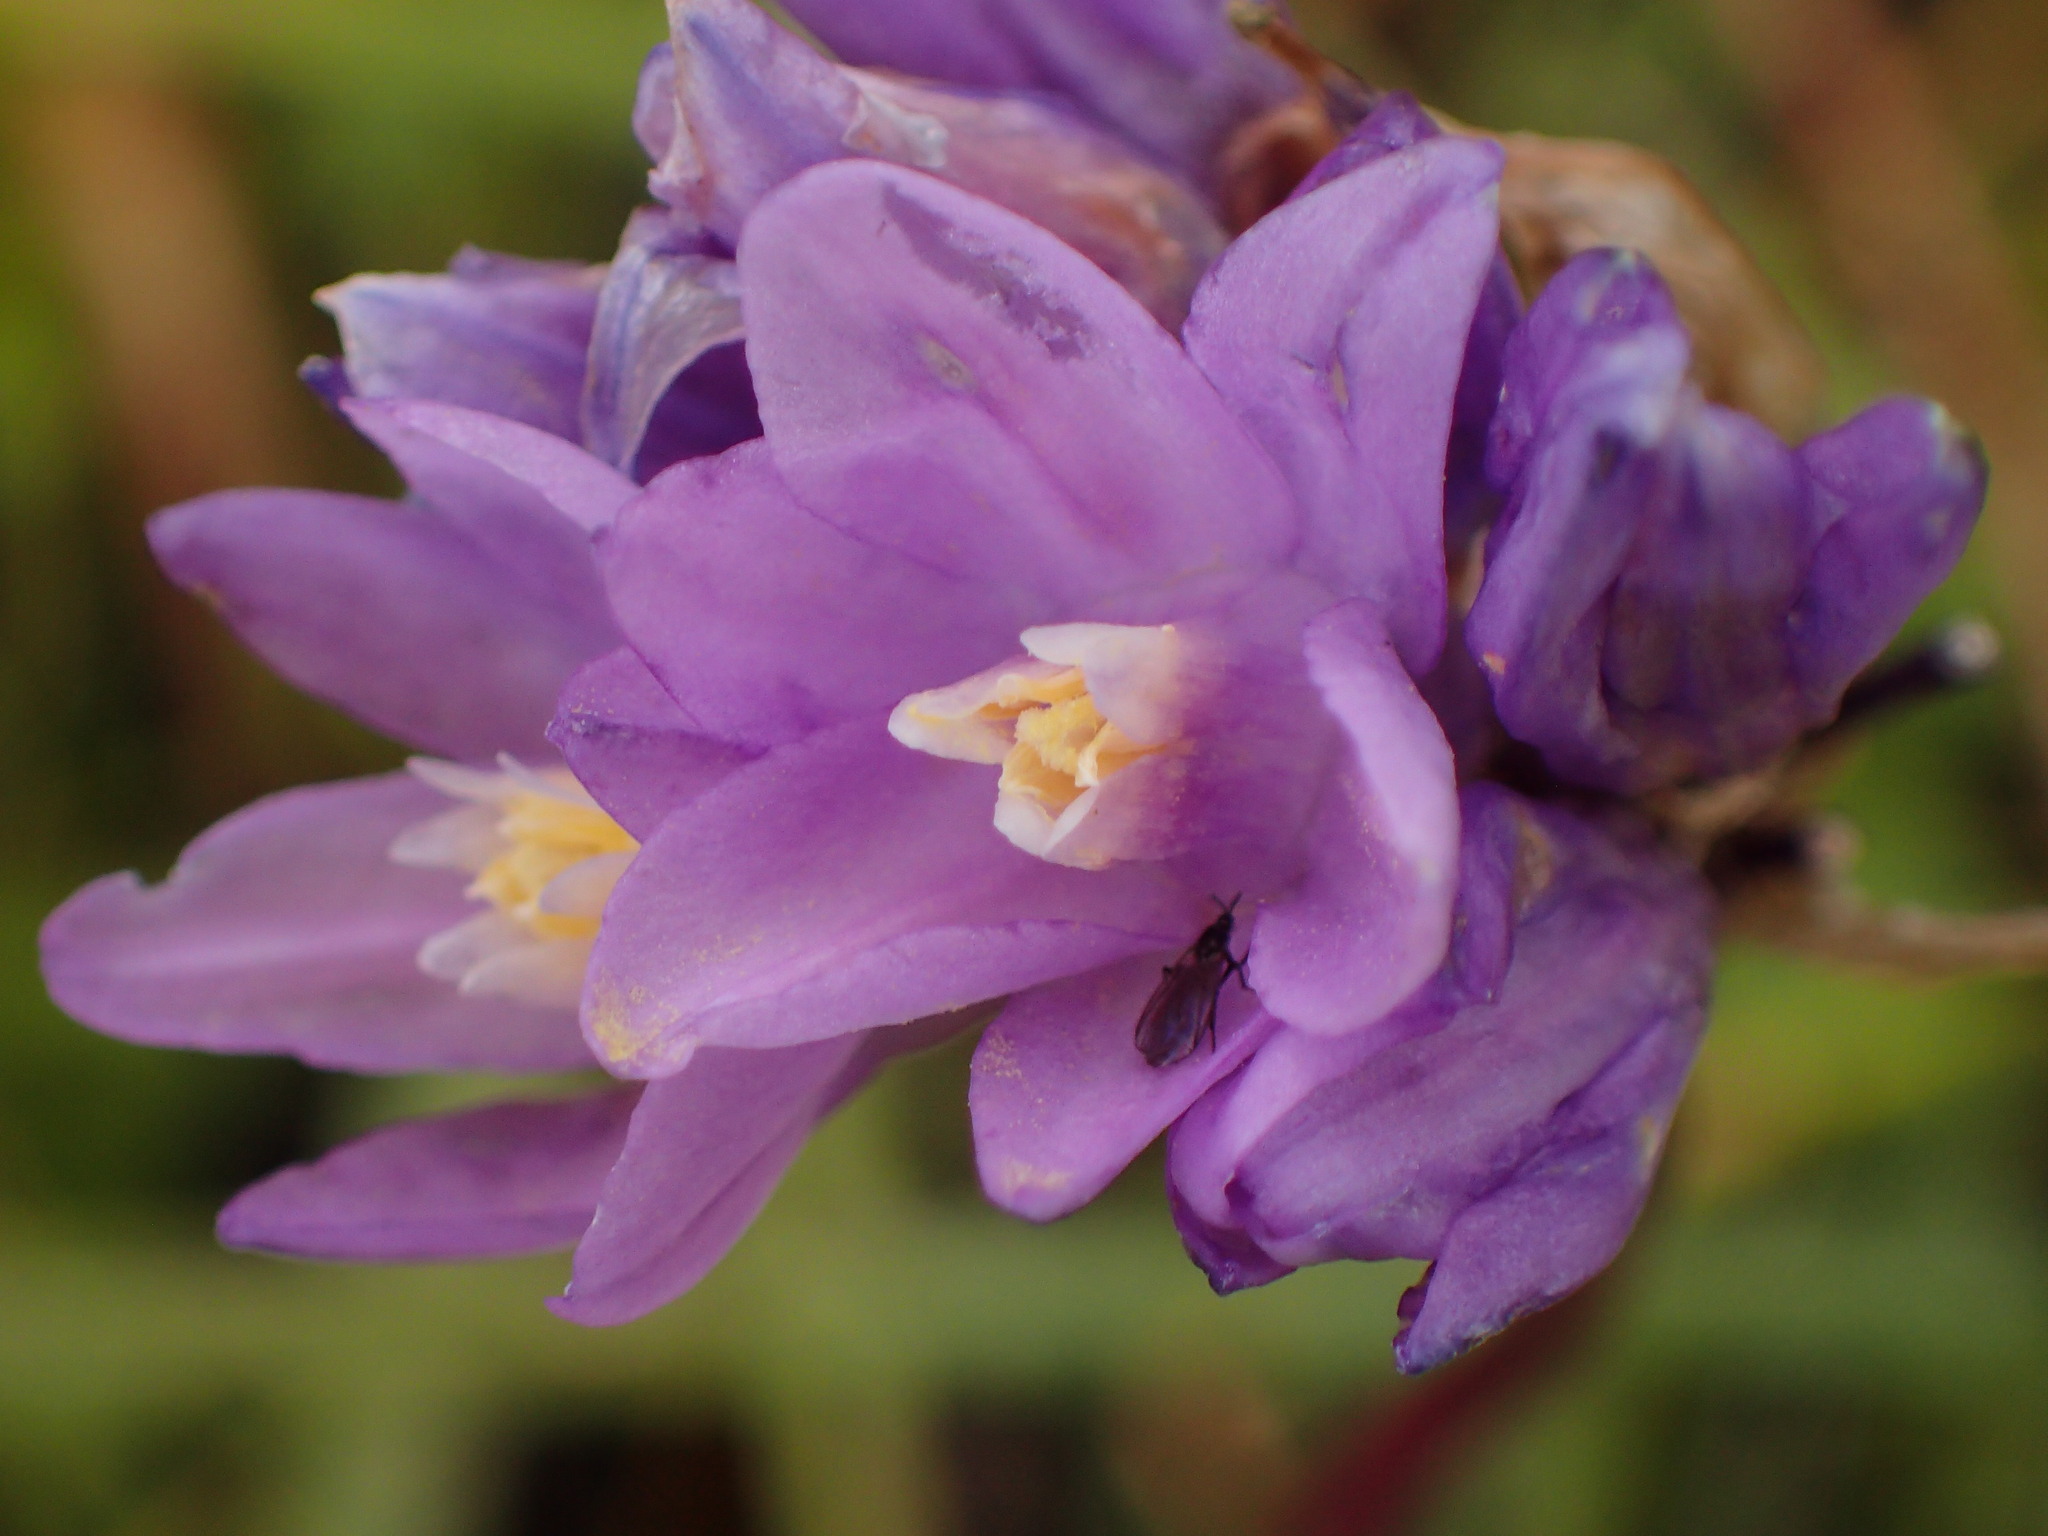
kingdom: Plantae
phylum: Tracheophyta
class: Liliopsida
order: Asparagales
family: Asparagaceae
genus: Dipterostemon
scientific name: Dipterostemon capitatus
